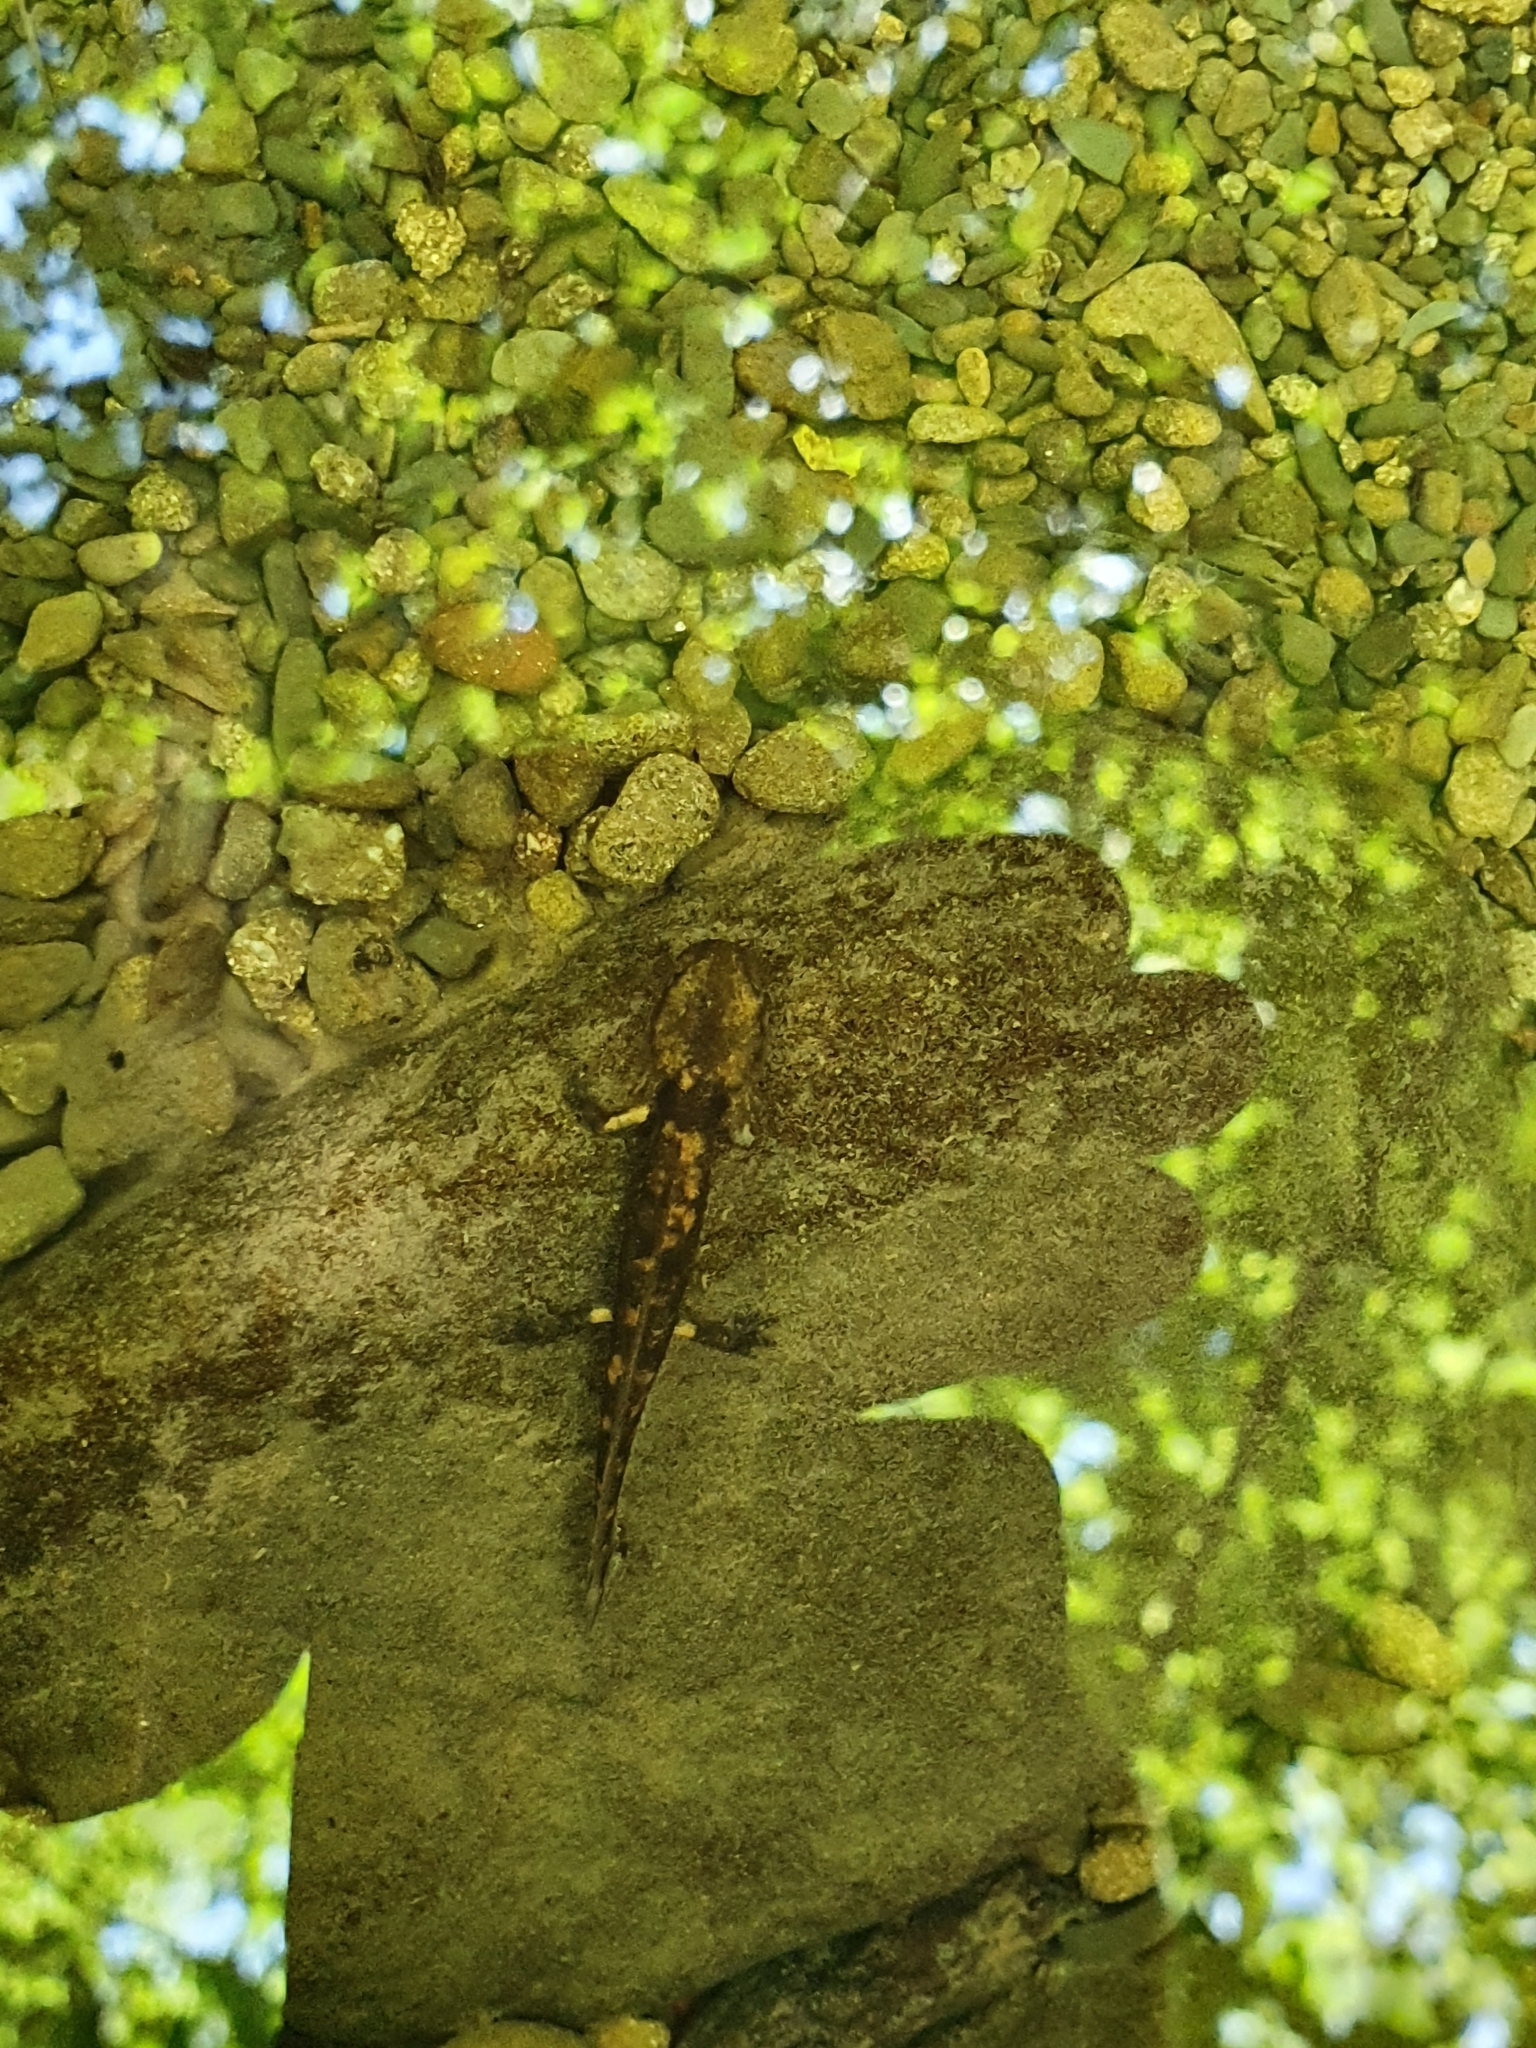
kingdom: Animalia
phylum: Chordata
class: Amphibia
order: Caudata
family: Salamandridae
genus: Salamandra
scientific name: Salamandra salamandra
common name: Fire salamander
